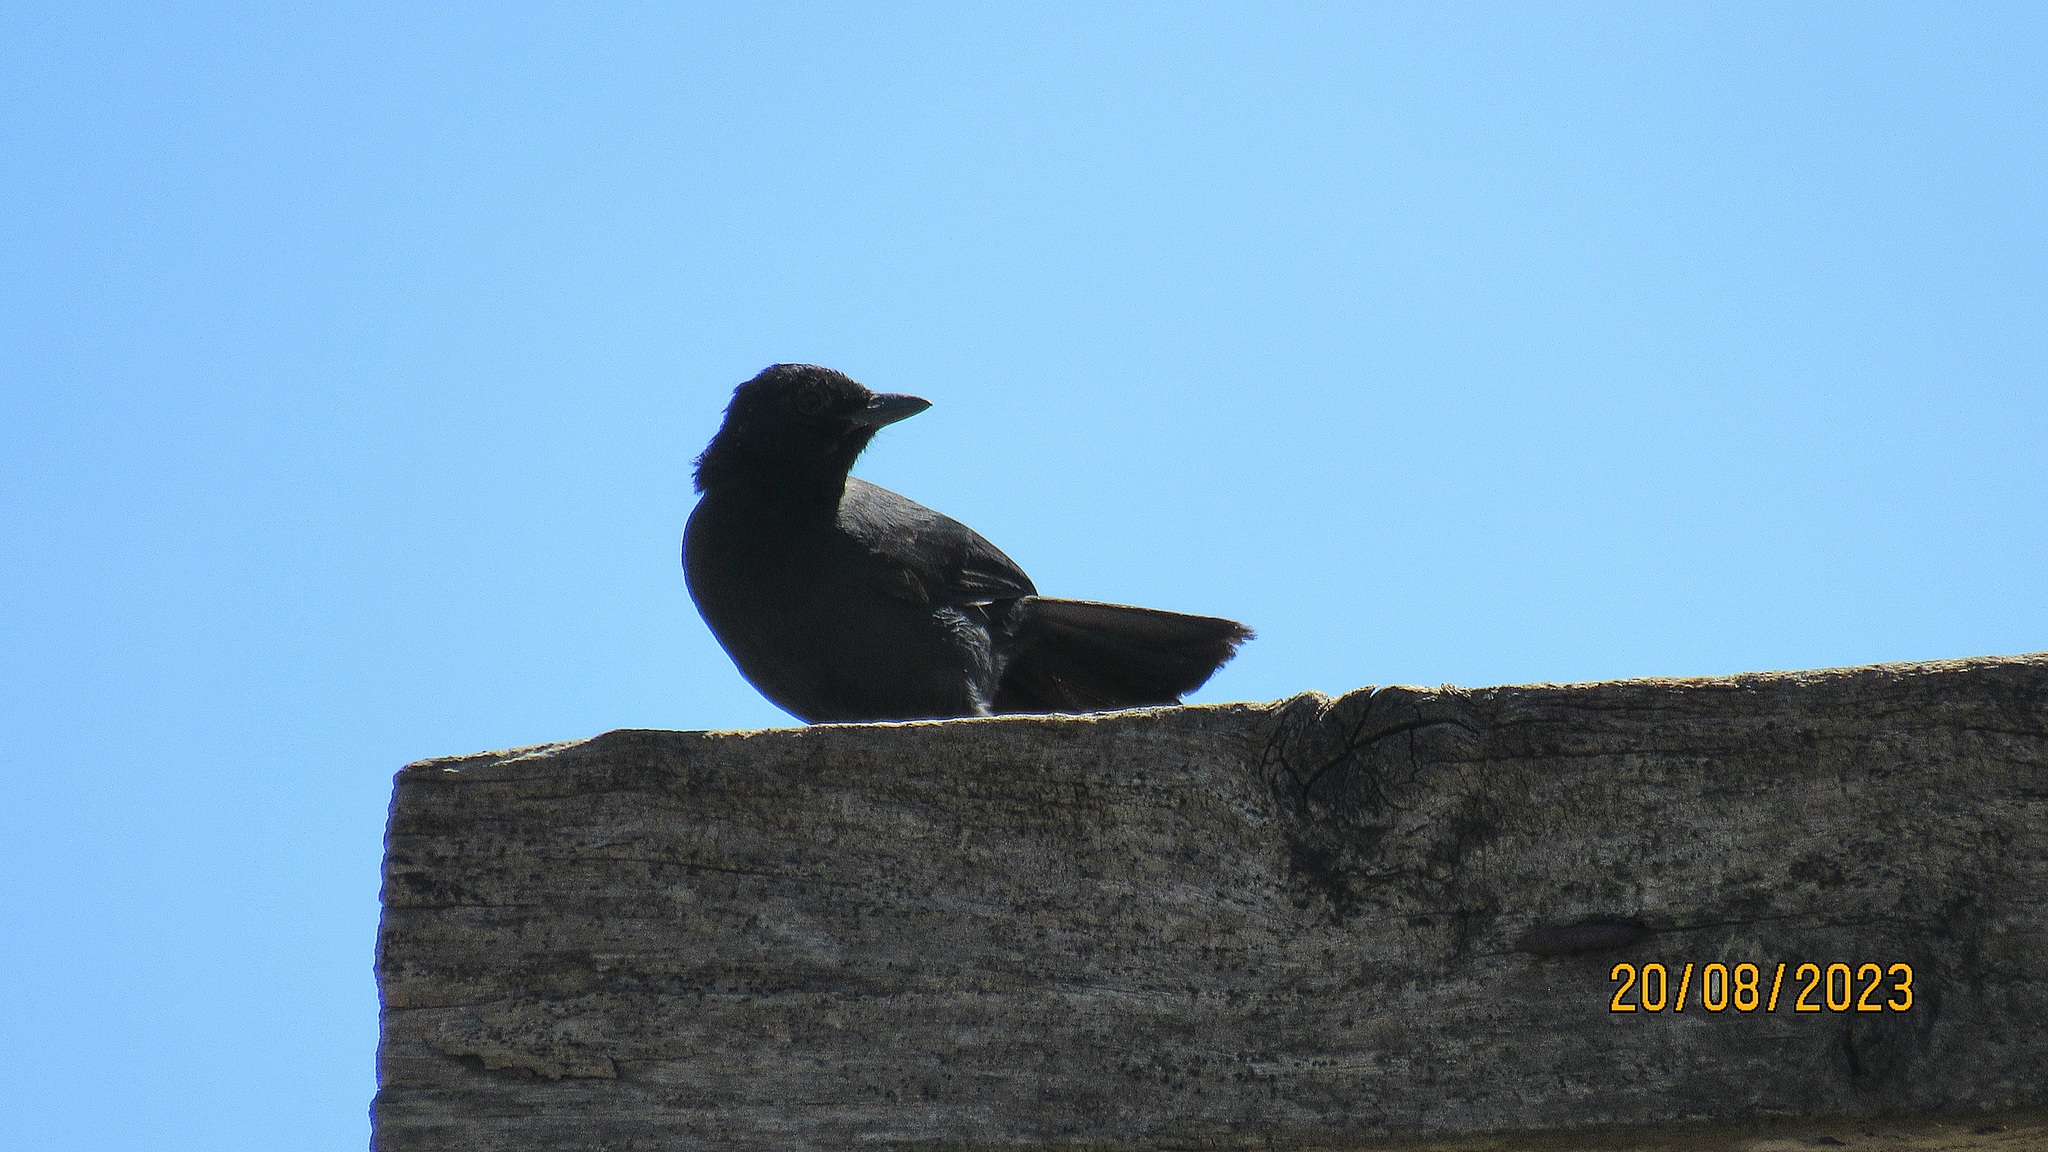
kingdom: Animalia
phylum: Chordata
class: Aves
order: Passeriformes
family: Malaconotidae
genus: Laniarius
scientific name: Laniarius funebris
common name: Slate-colored boubou
